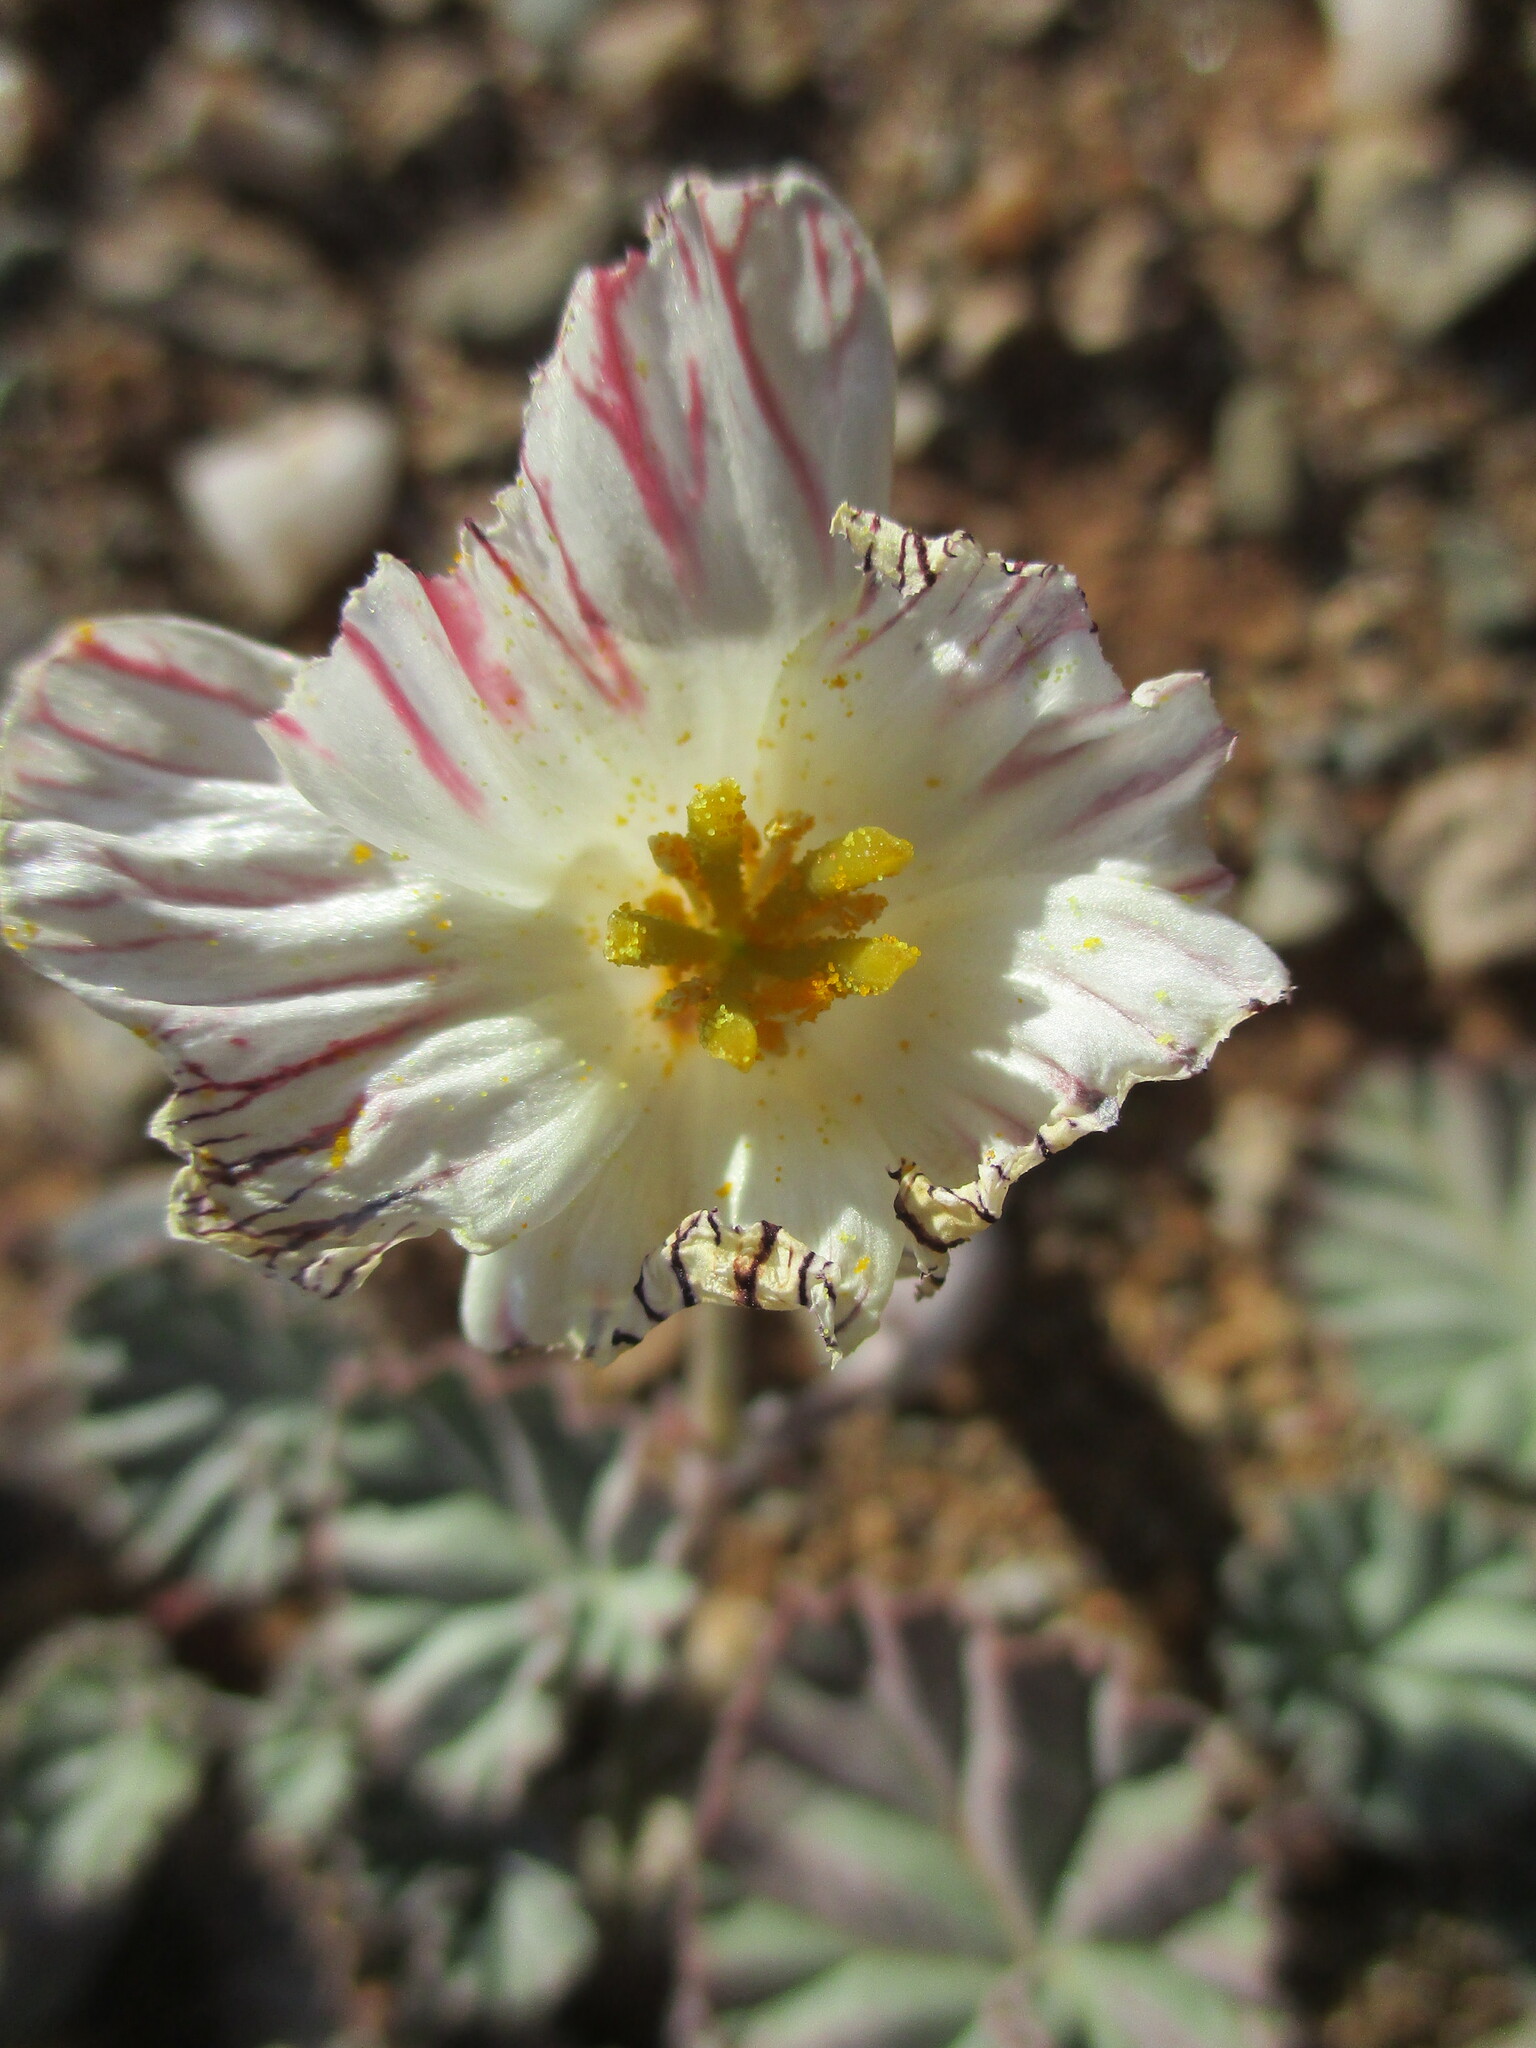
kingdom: Plantae
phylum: Tracheophyta
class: Magnoliopsida
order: Geraniales
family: Geraniaceae
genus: Monsonia
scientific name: Monsonia drudeana
